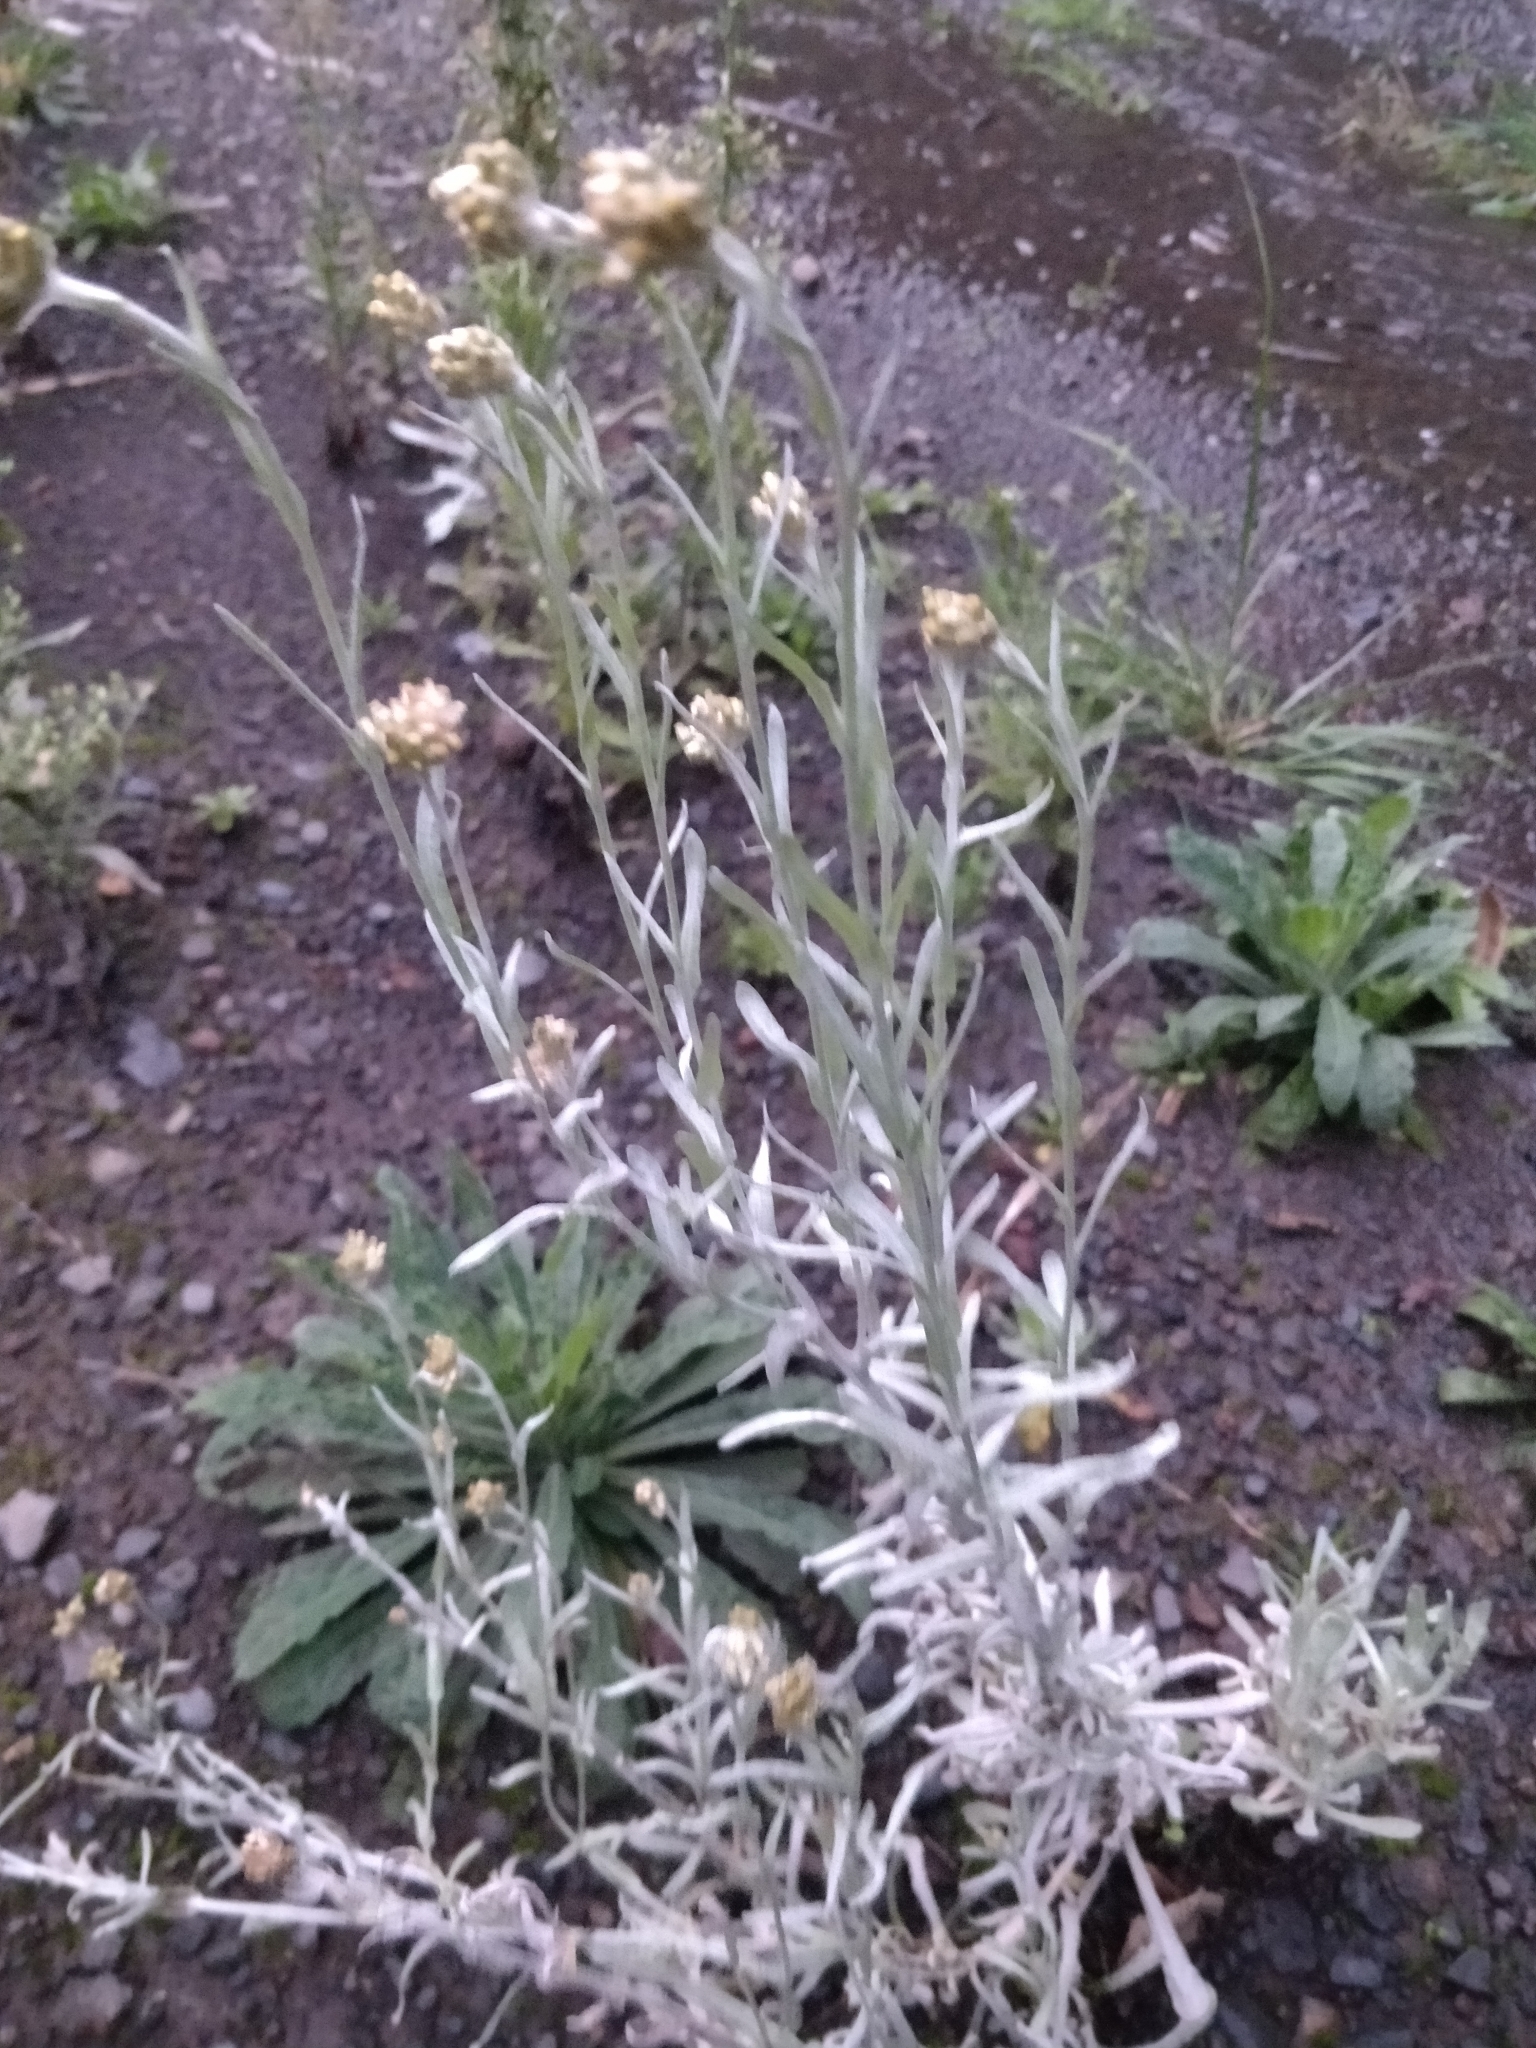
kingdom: Plantae
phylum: Tracheophyta
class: Magnoliopsida
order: Asterales
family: Asteraceae
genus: Helichrysum
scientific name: Helichrysum luteoalbum
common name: Daisy
